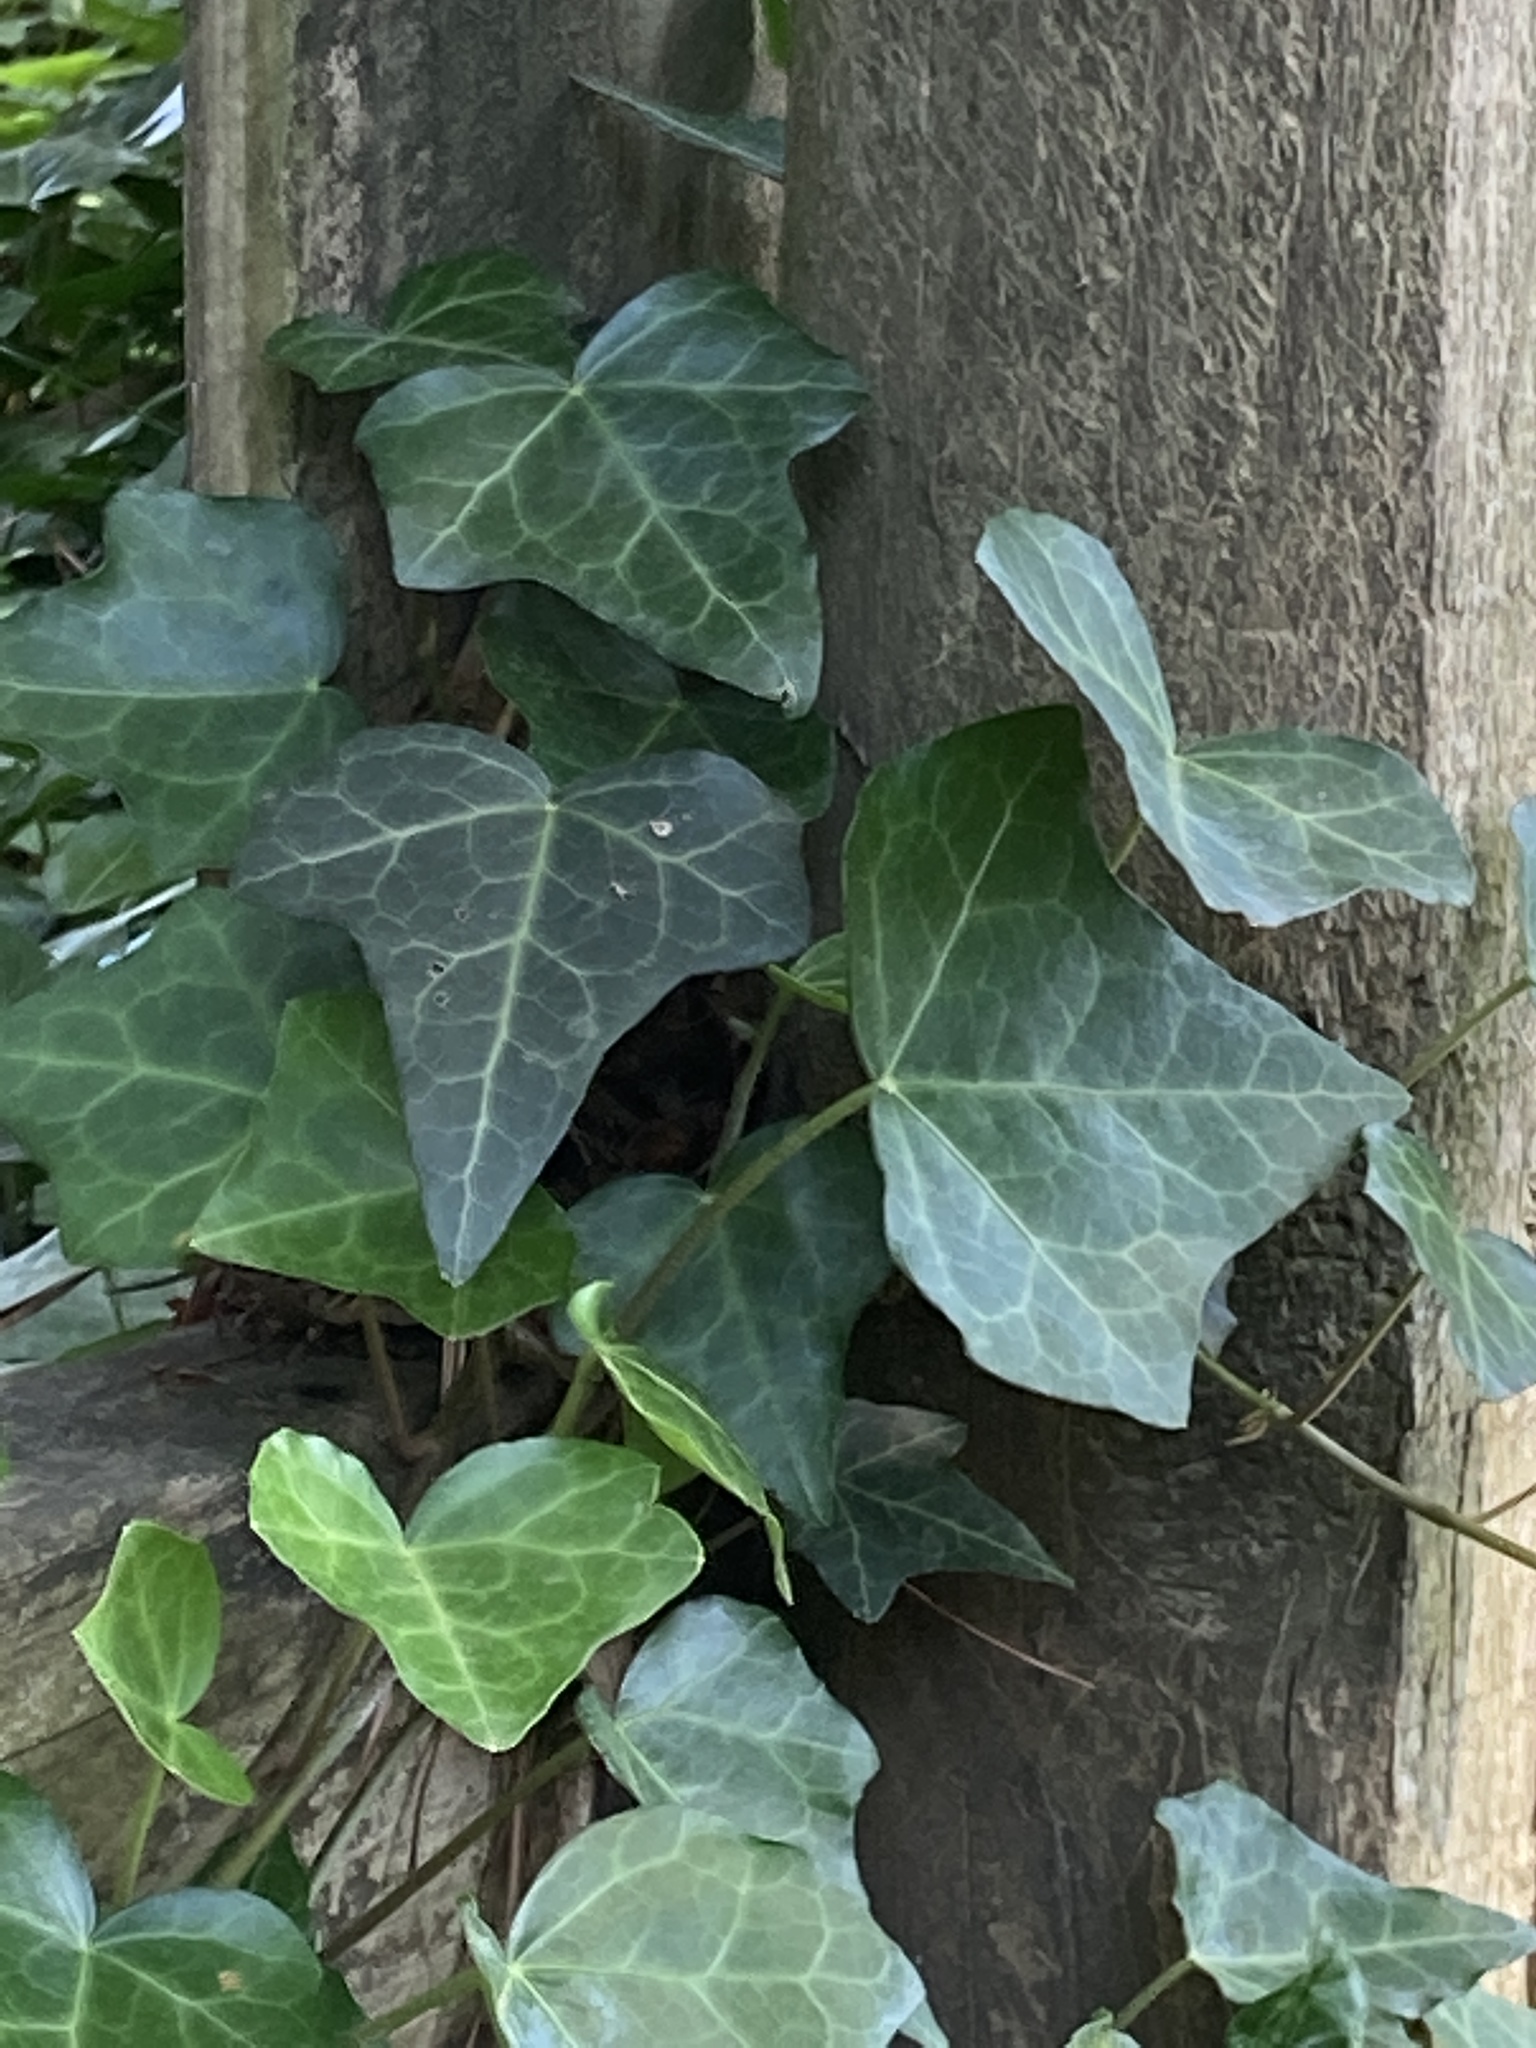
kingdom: Plantae
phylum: Tracheophyta
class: Magnoliopsida
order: Apiales
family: Araliaceae
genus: Hedera
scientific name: Hedera helix
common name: Ivy
